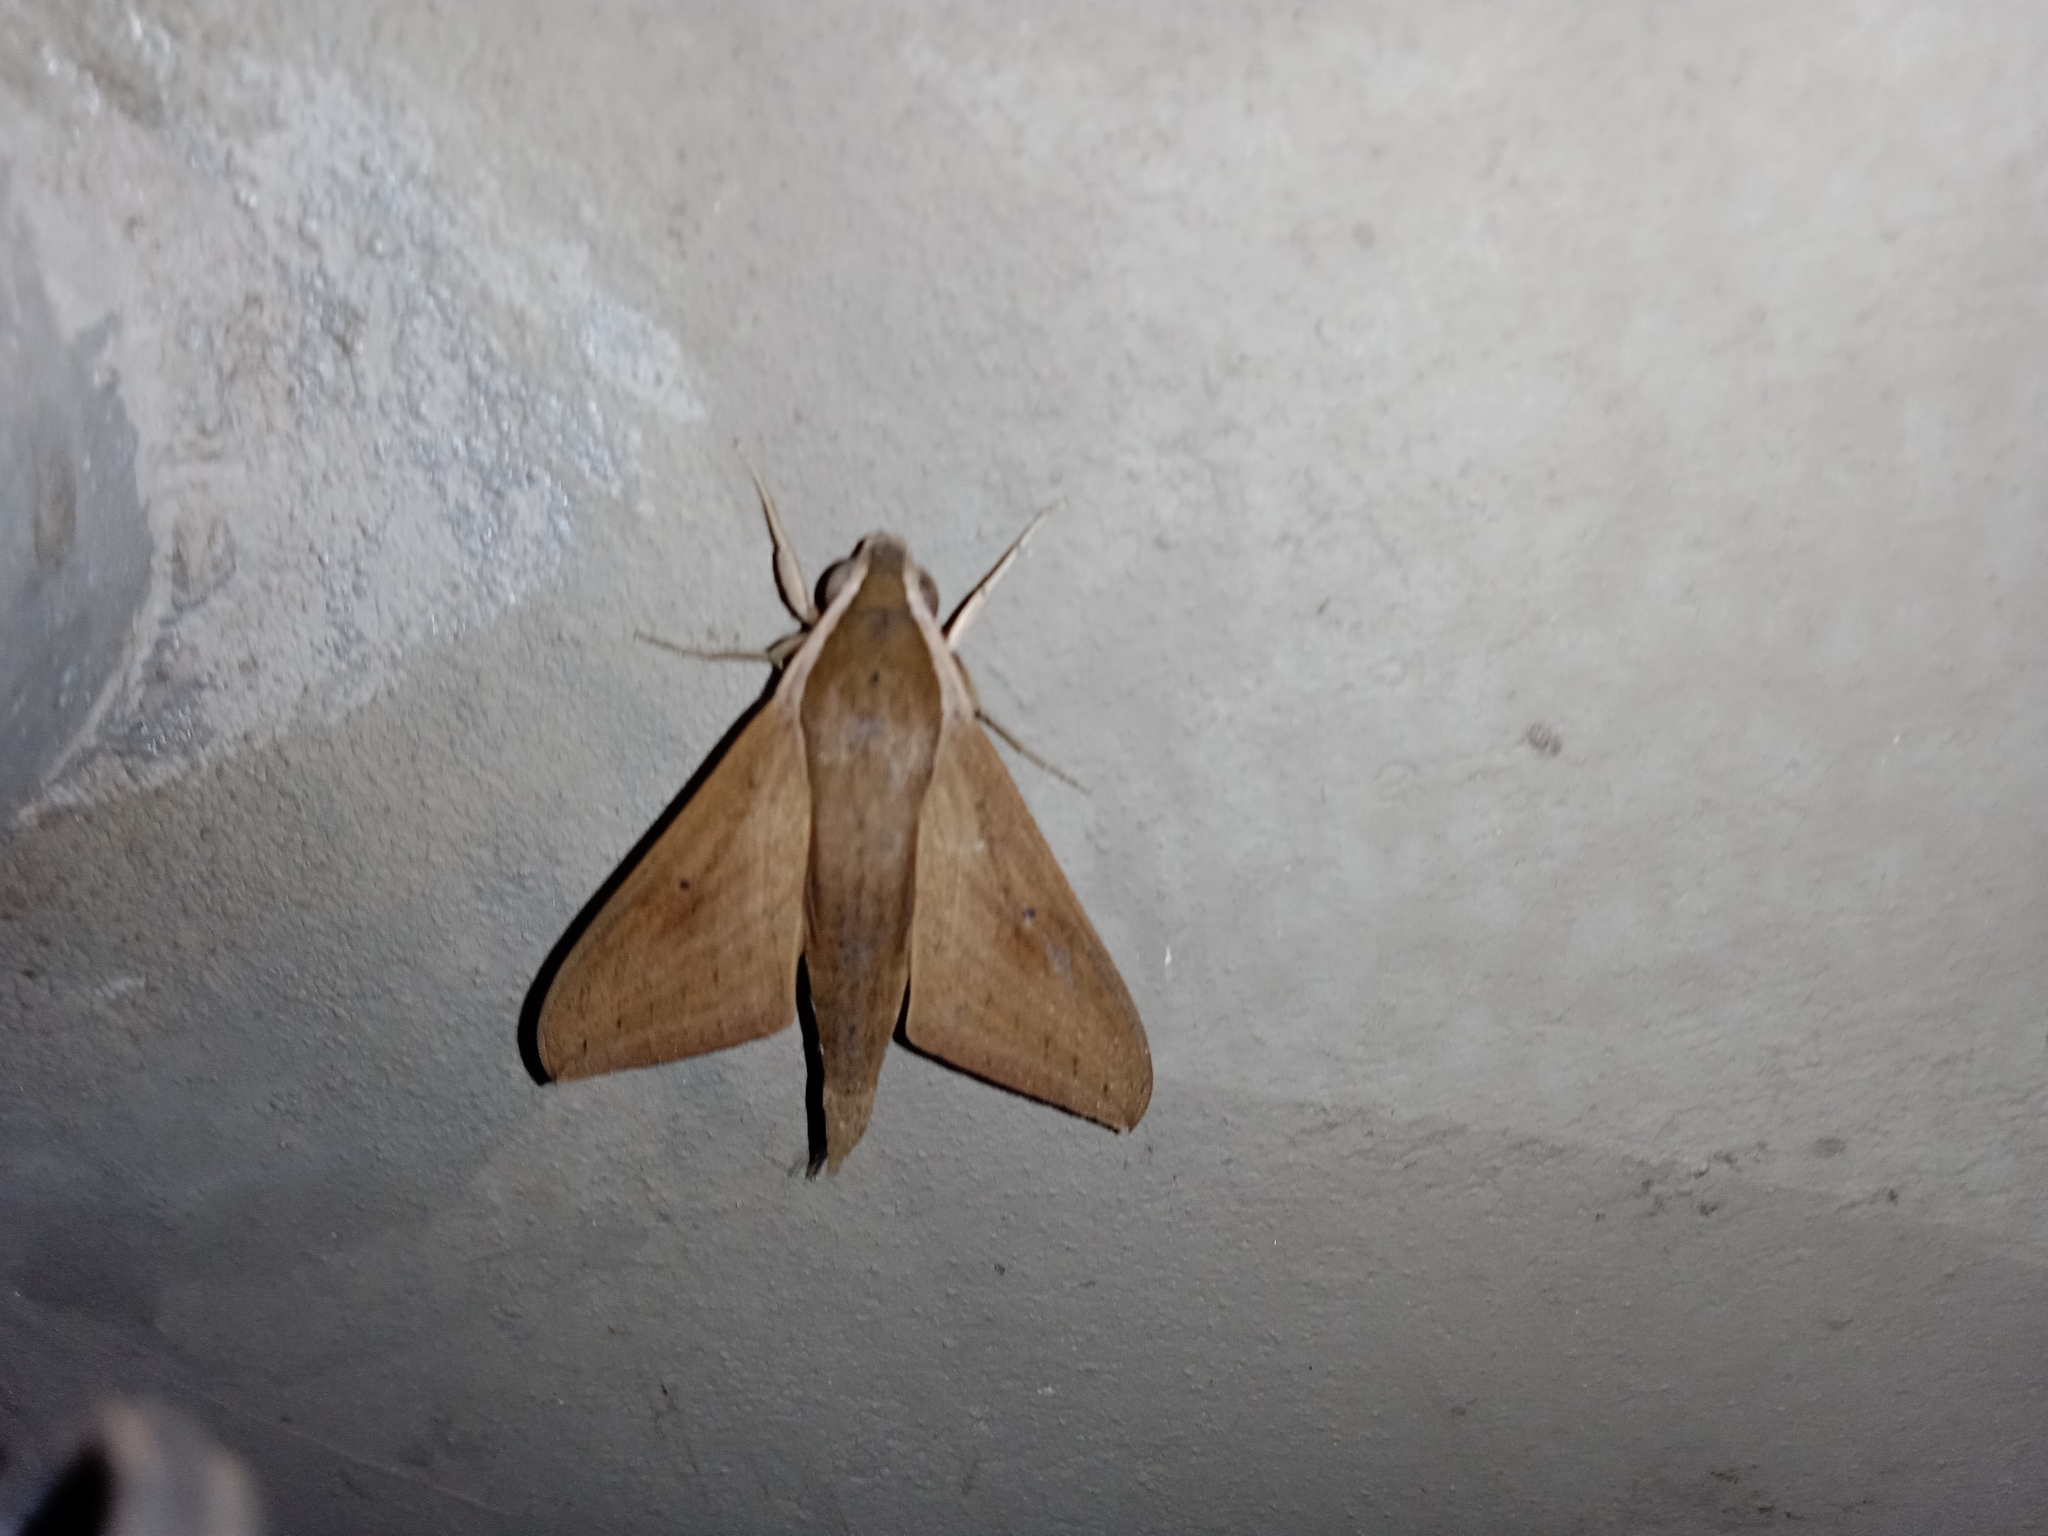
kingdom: Animalia
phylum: Arthropoda
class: Insecta
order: Lepidoptera
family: Sphingidae
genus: Theretra
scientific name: Theretra rhesus
